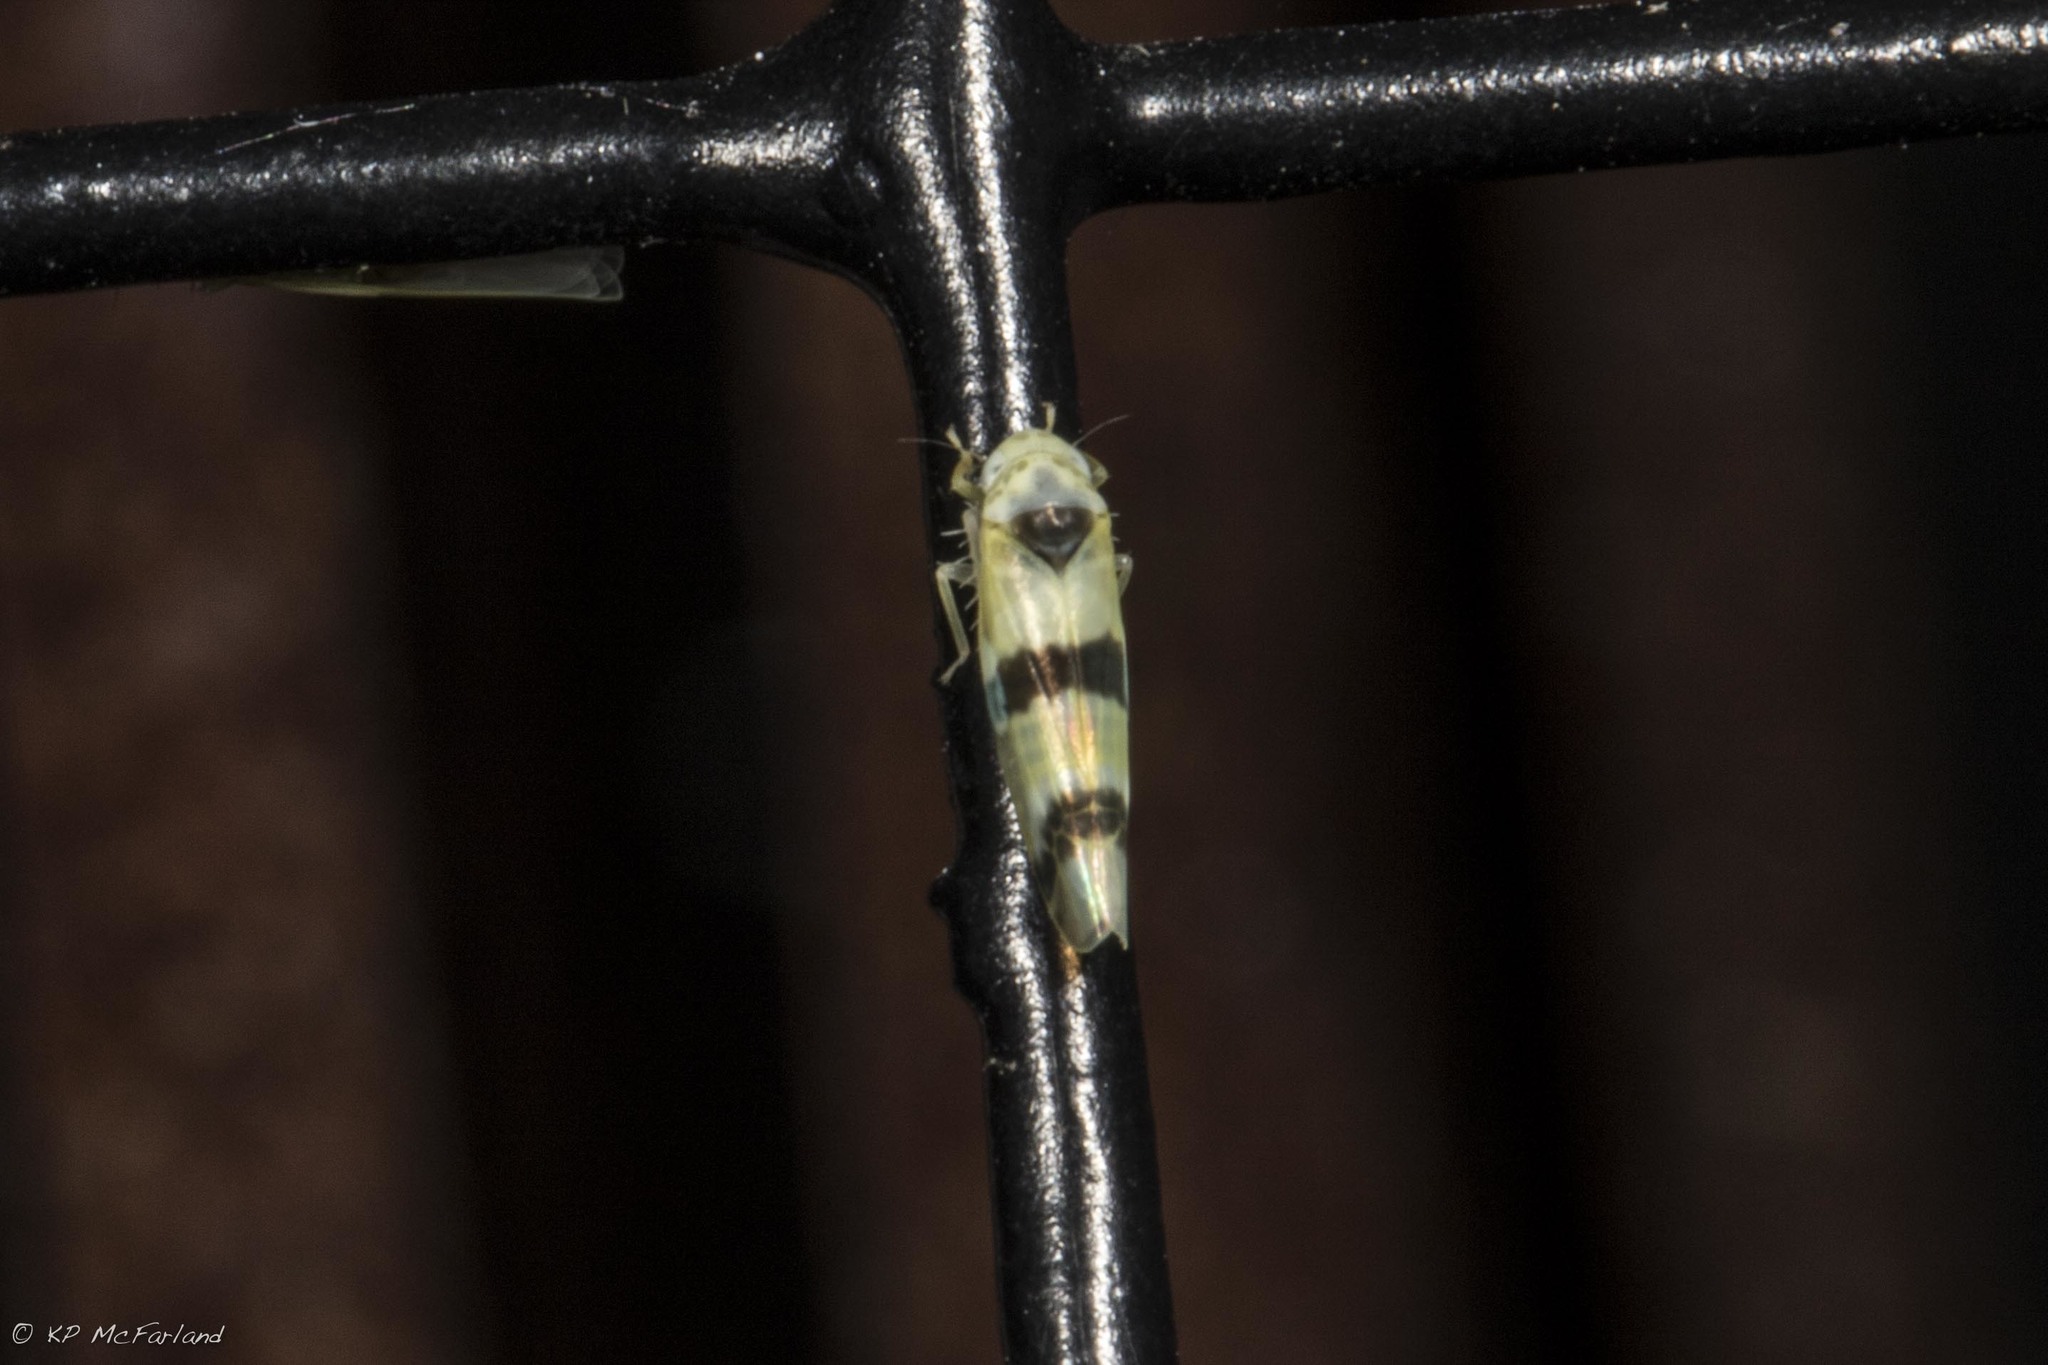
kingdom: Animalia
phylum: Arthropoda
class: Insecta
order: Hemiptera
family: Cicadellidae
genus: Empoa
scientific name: Empoa gillettei
